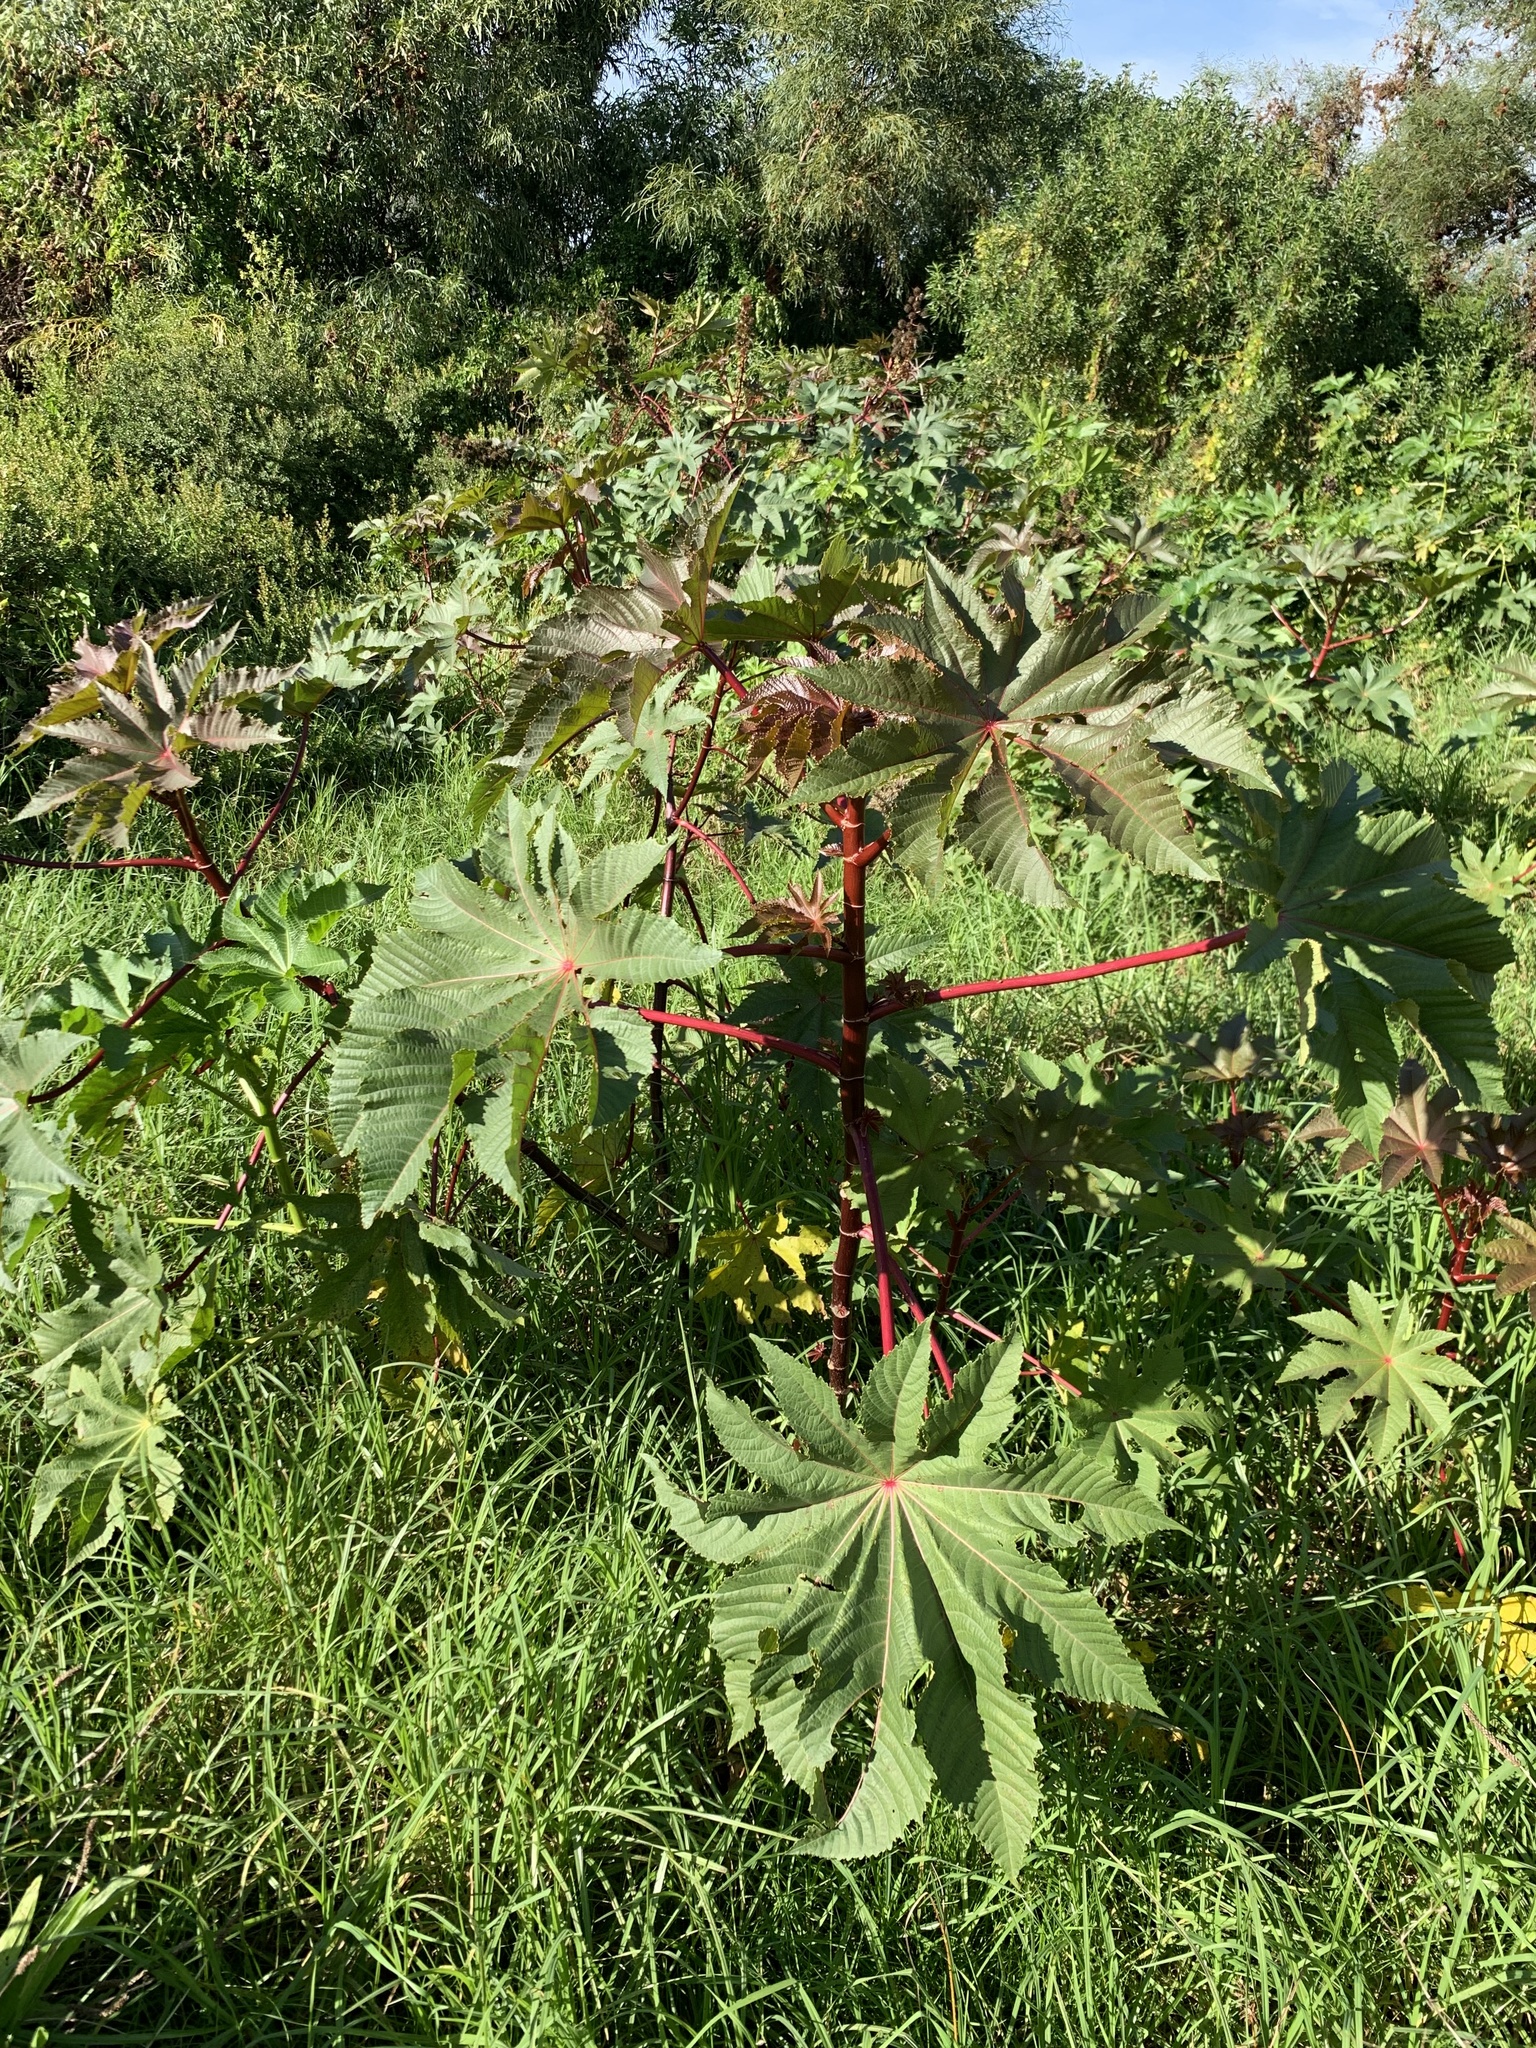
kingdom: Plantae
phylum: Tracheophyta
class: Magnoliopsida
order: Malpighiales
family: Euphorbiaceae
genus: Ricinus
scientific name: Ricinus communis
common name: Castor-oil-plant
